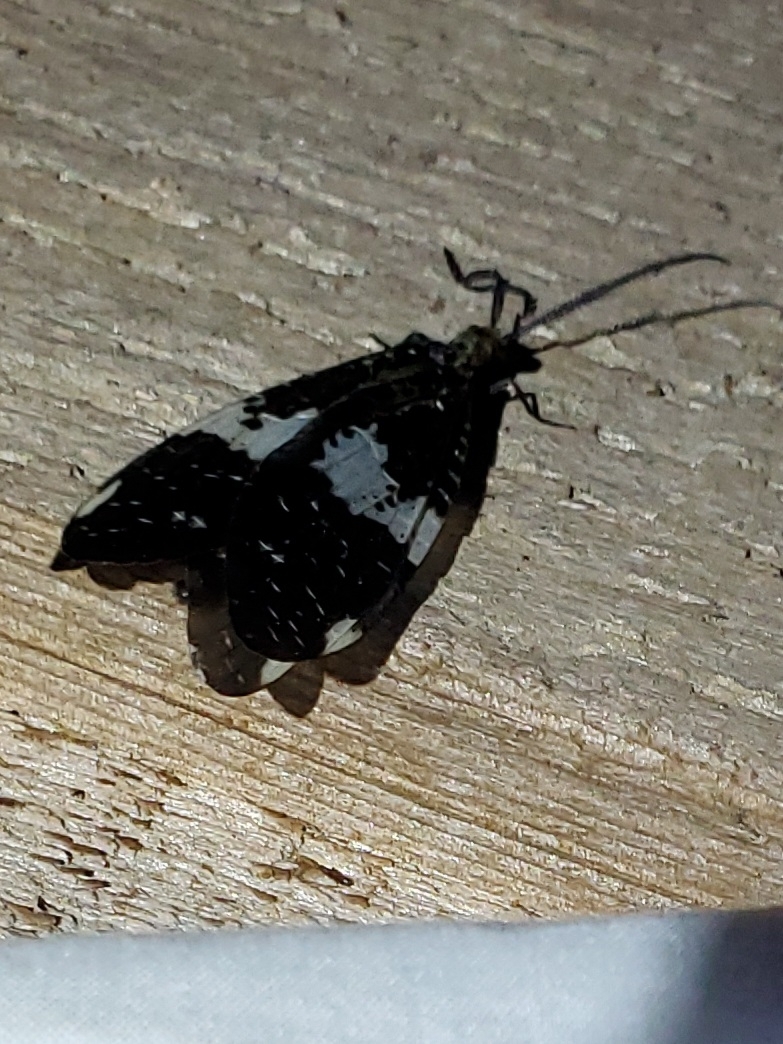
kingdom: Animalia
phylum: Arthropoda
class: Insecta
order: Megaloptera
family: Corydalidae
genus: Nigronia
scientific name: Nigronia fasciata
